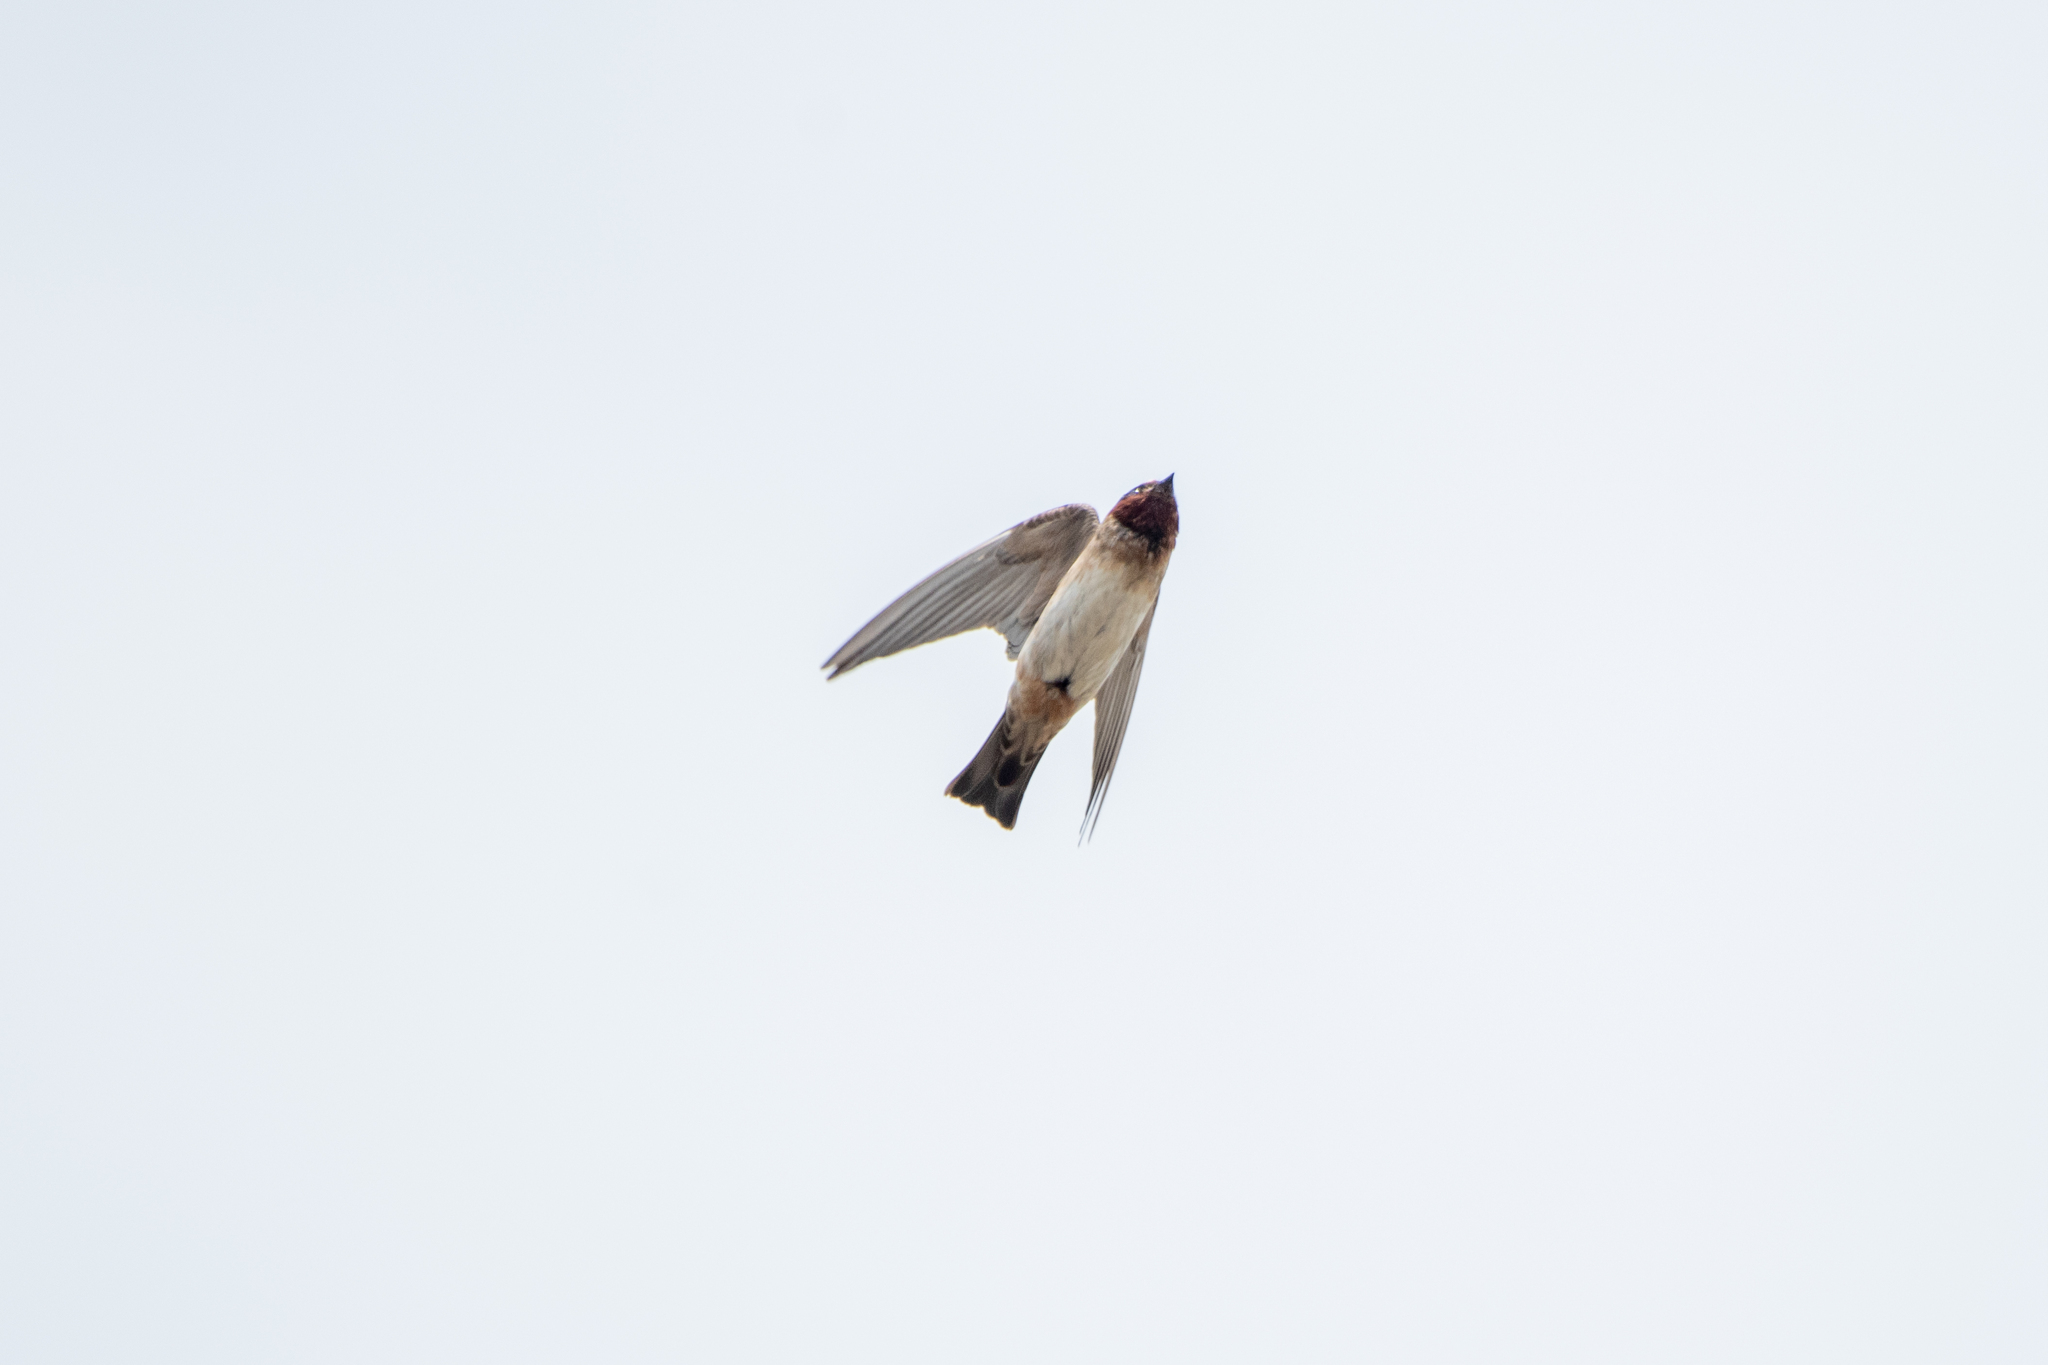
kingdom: Animalia
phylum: Chordata
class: Aves
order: Passeriformes
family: Hirundinidae
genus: Petrochelidon
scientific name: Petrochelidon pyrrhonota
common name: American cliff swallow
